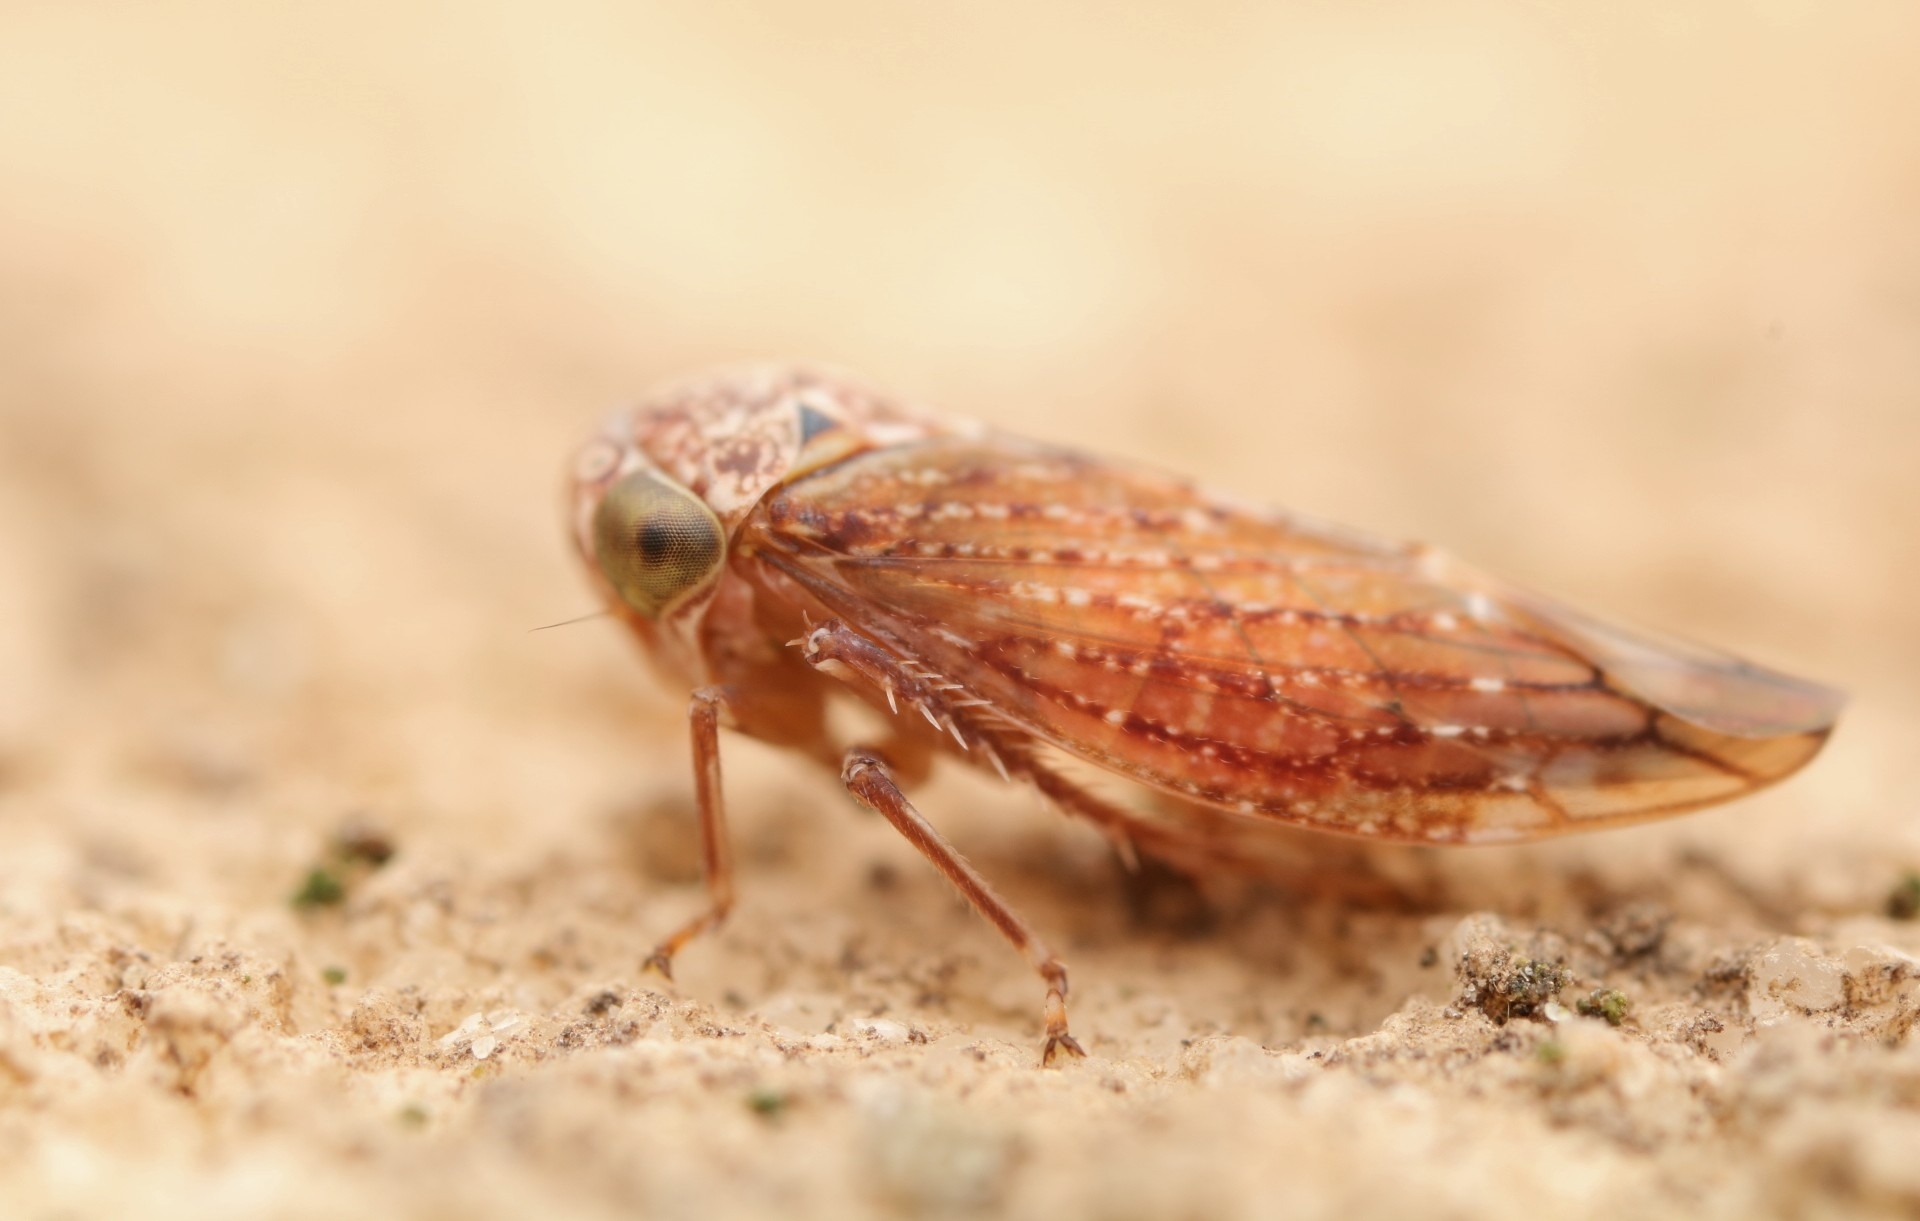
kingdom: Animalia
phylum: Arthropoda
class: Insecta
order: Hemiptera
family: Cicadellidae
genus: Acericerus
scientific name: Acericerus ribauti
